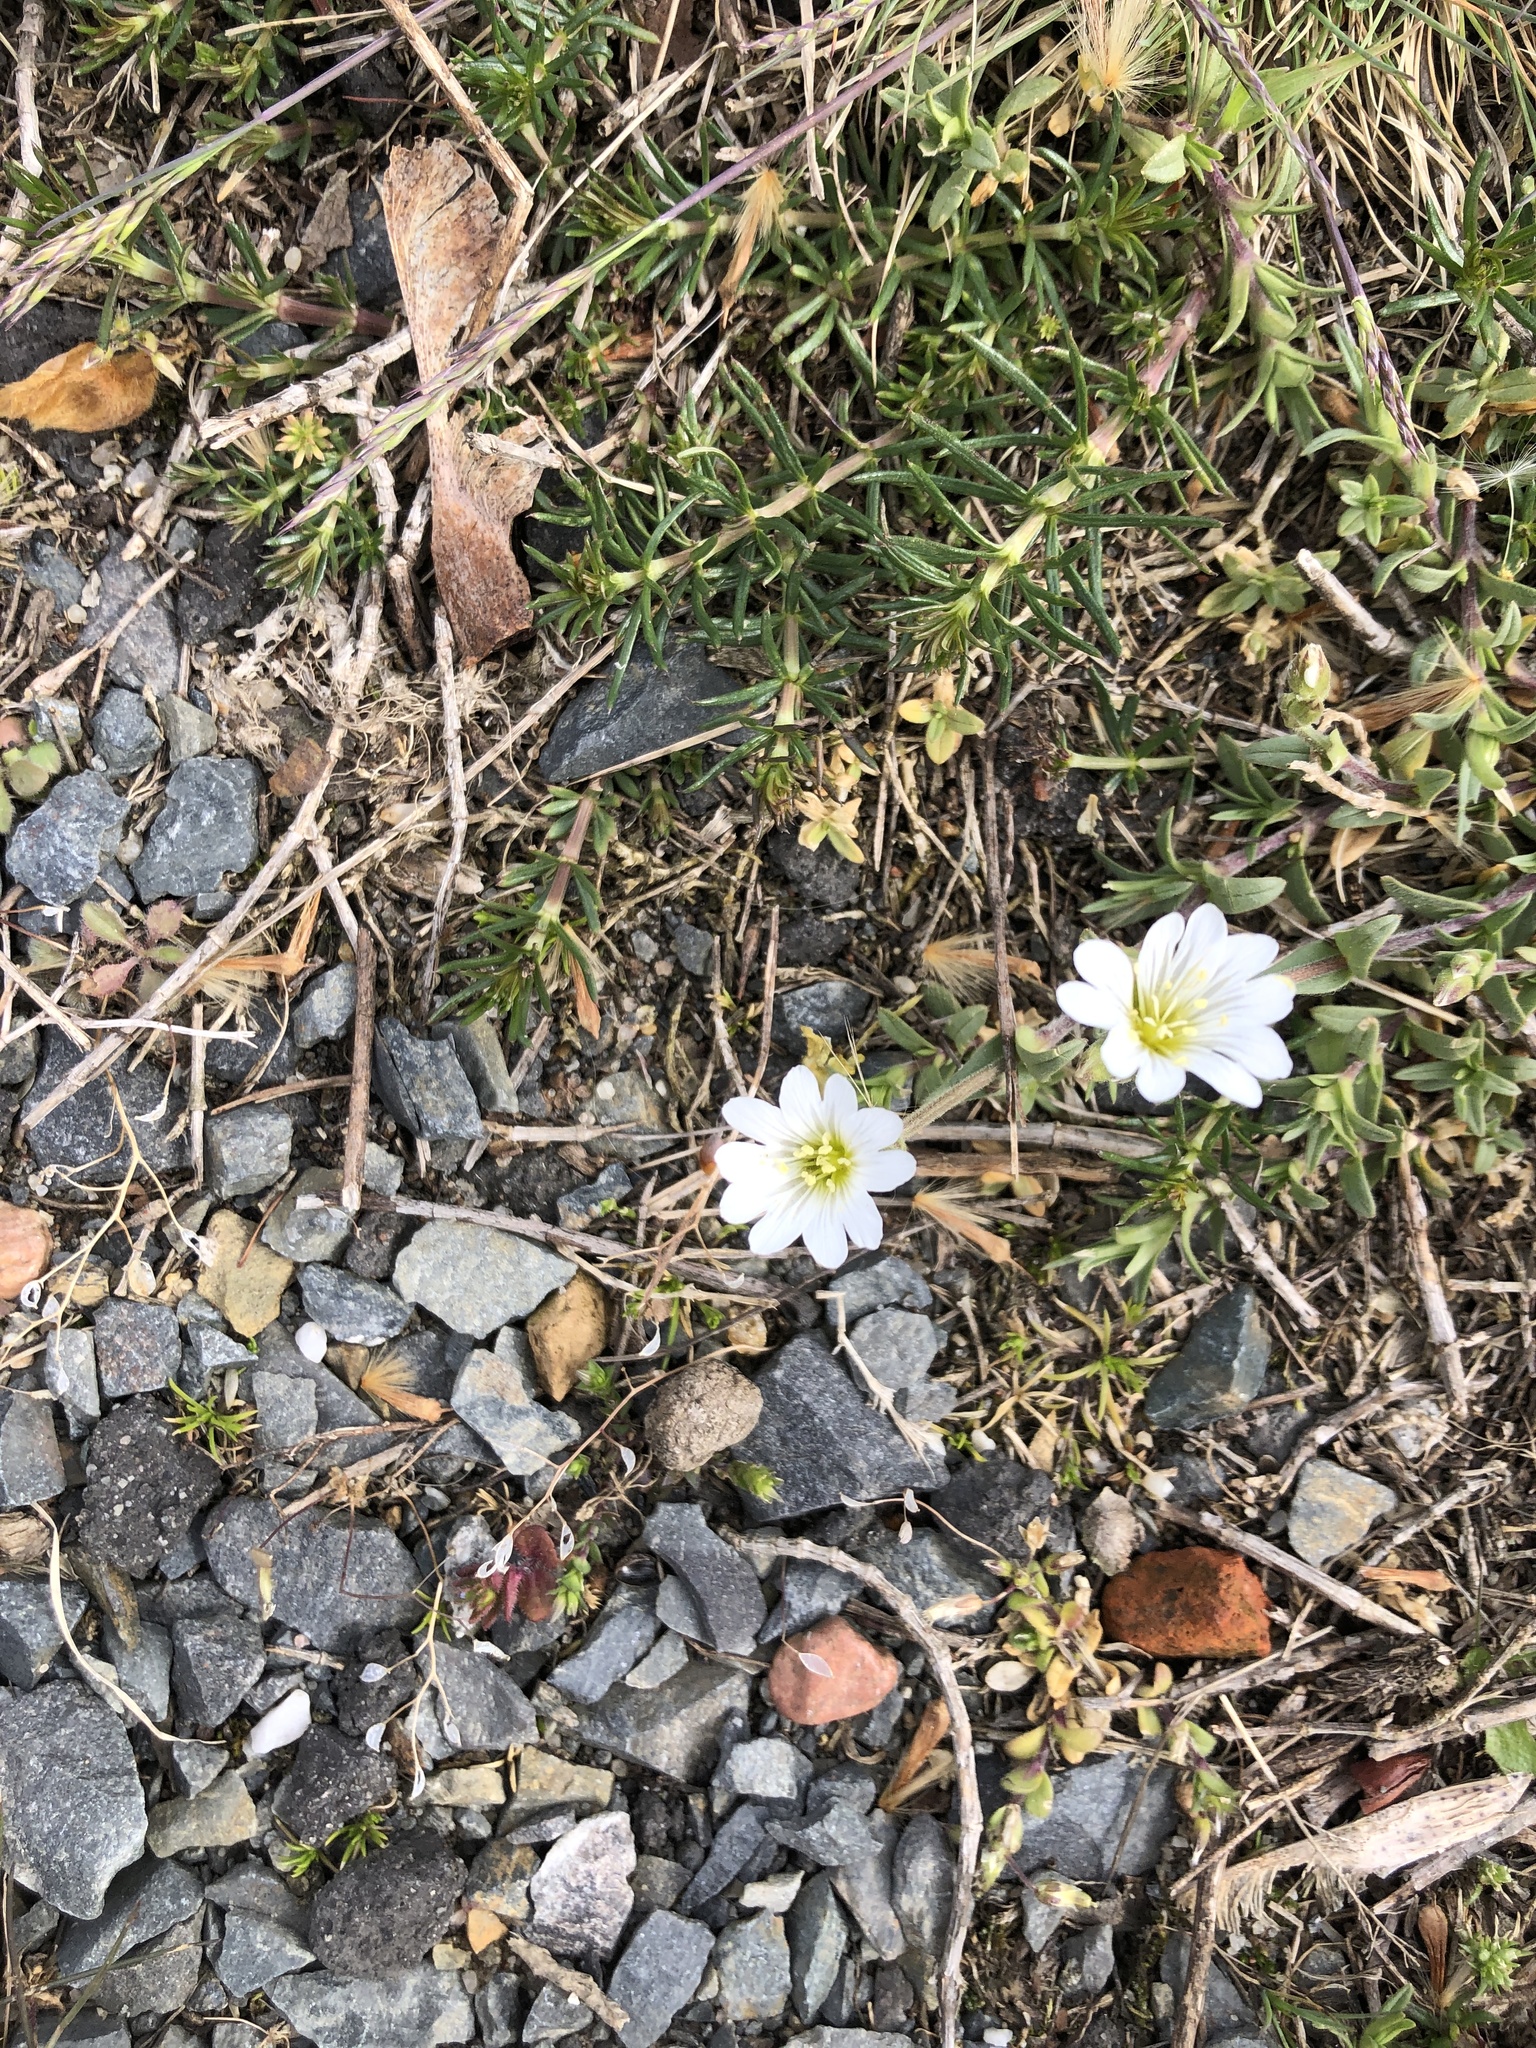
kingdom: Plantae
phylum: Tracheophyta
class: Magnoliopsida
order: Caryophyllales
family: Caryophyllaceae
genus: Cerastium
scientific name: Cerastium arvense
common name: Field mouse-ear
